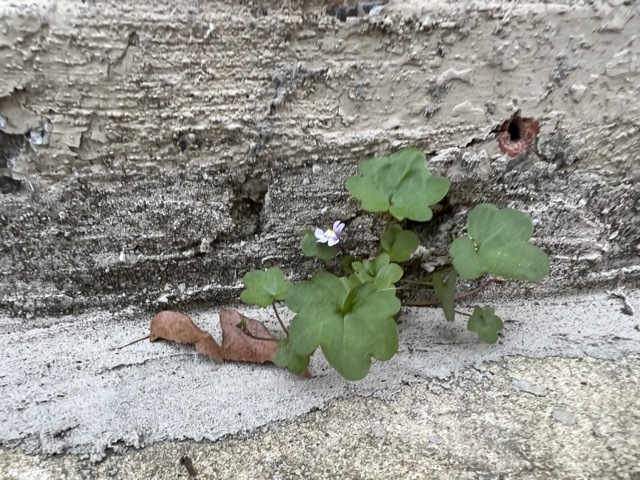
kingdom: Plantae
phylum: Tracheophyta
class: Magnoliopsida
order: Lamiales
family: Plantaginaceae
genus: Cymbalaria
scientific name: Cymbalaria muralis
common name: Ivy-leaved toadflax
